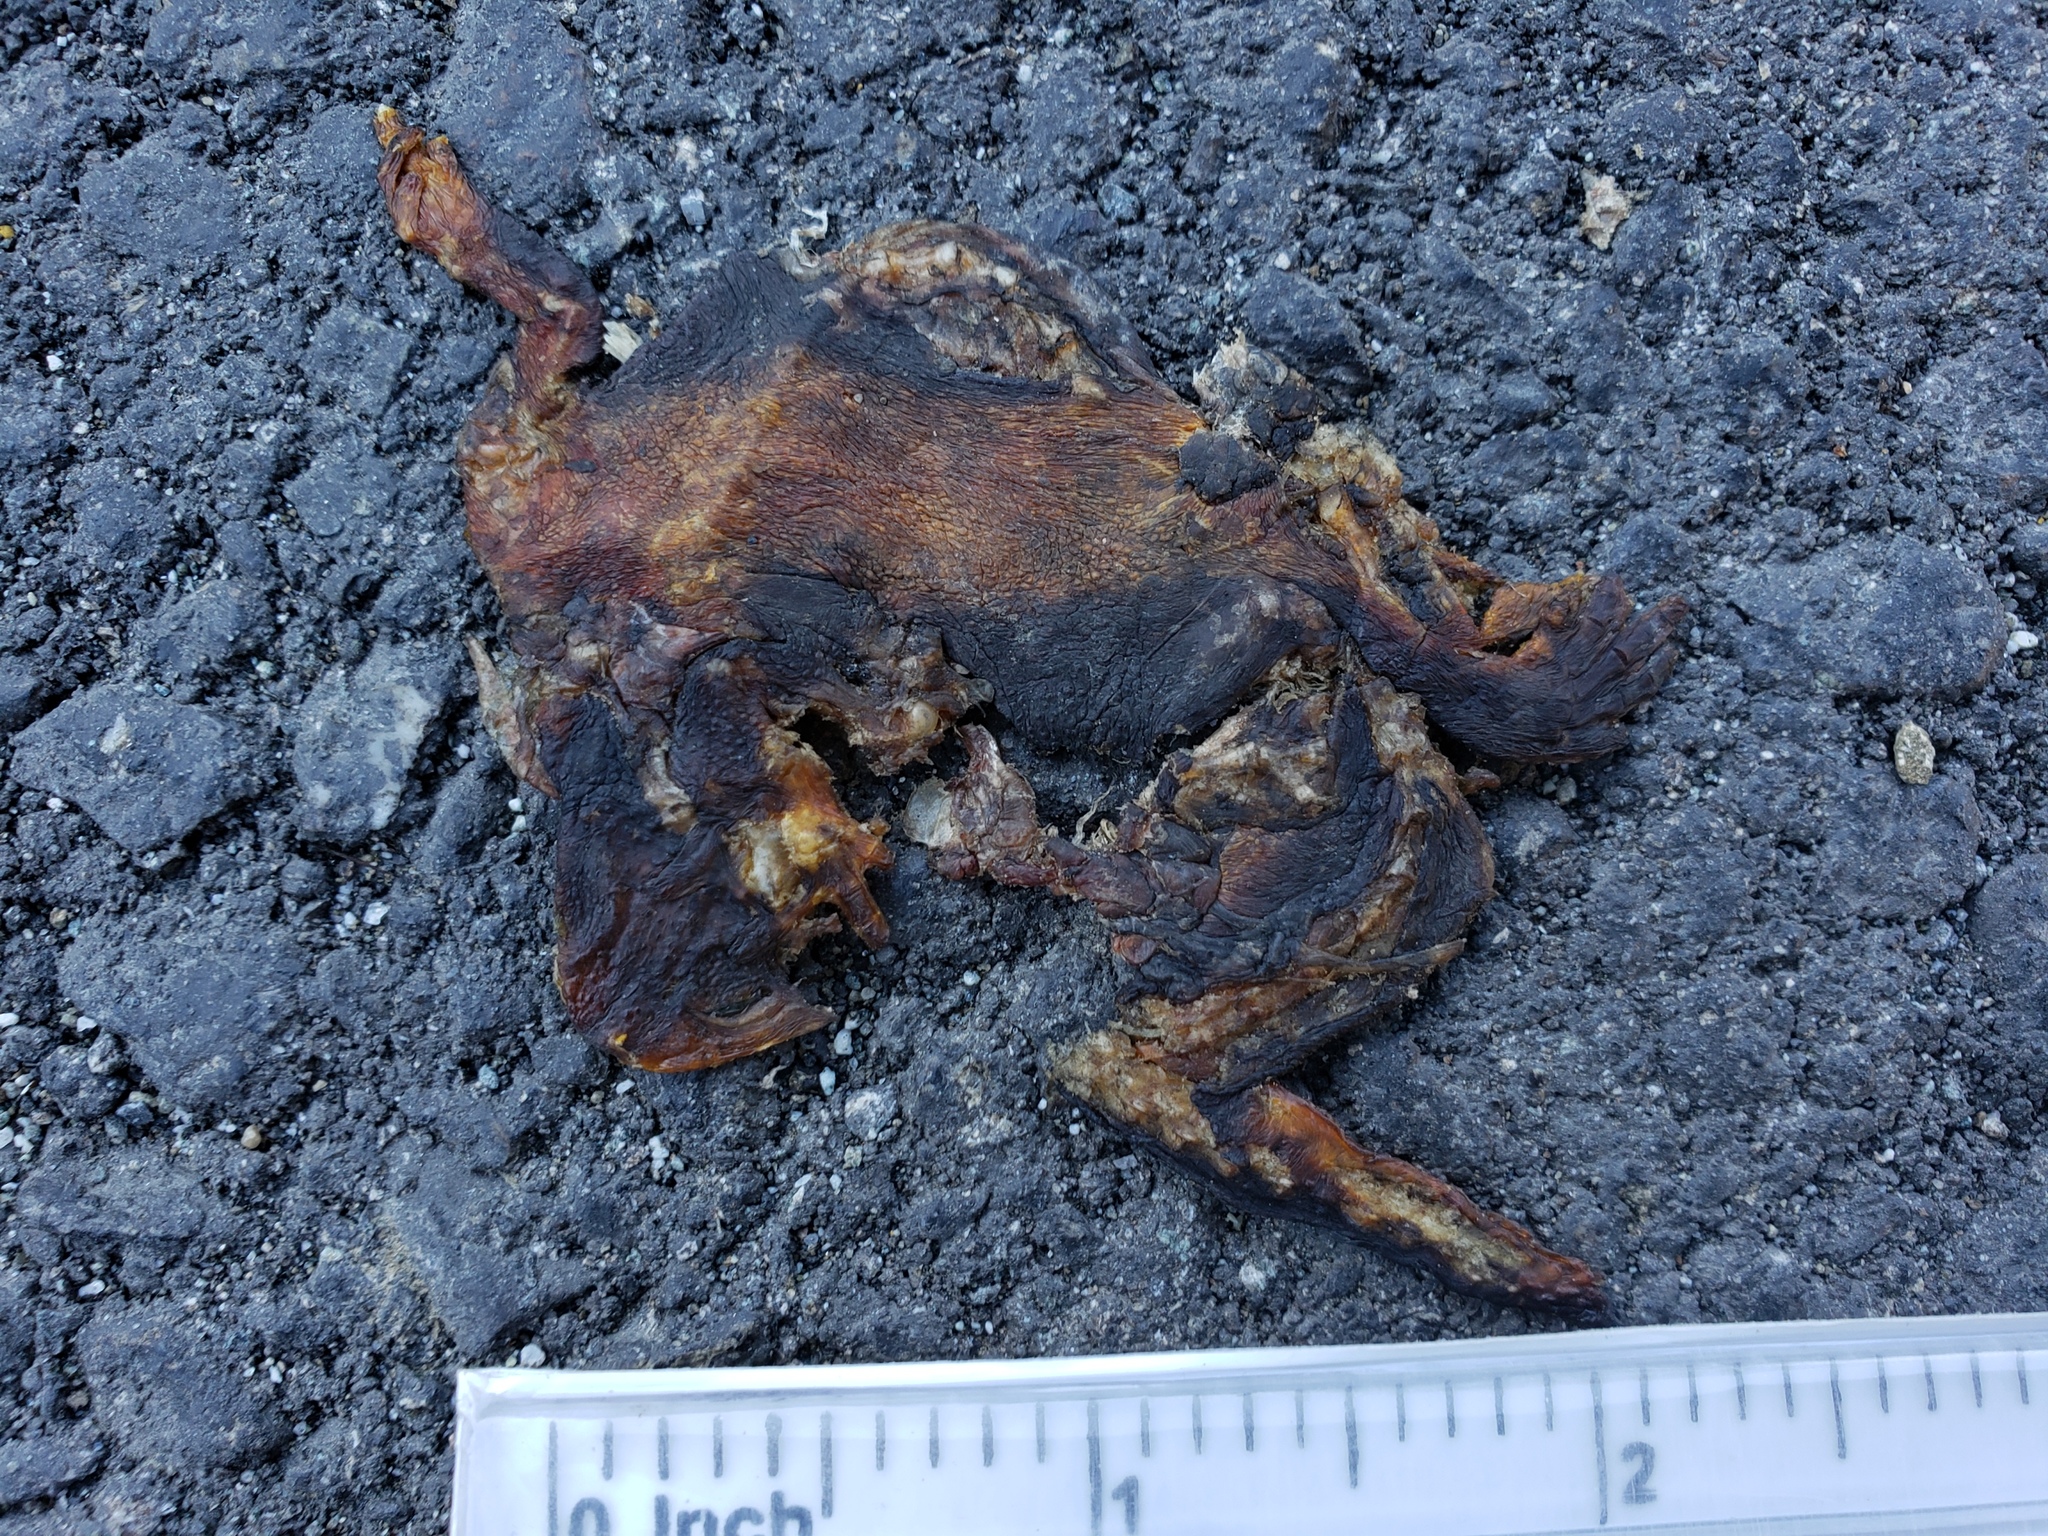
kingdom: Animalia
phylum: Chordata
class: Amphibia
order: Caudata
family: Salamandridae
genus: Taricha
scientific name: Taricha
